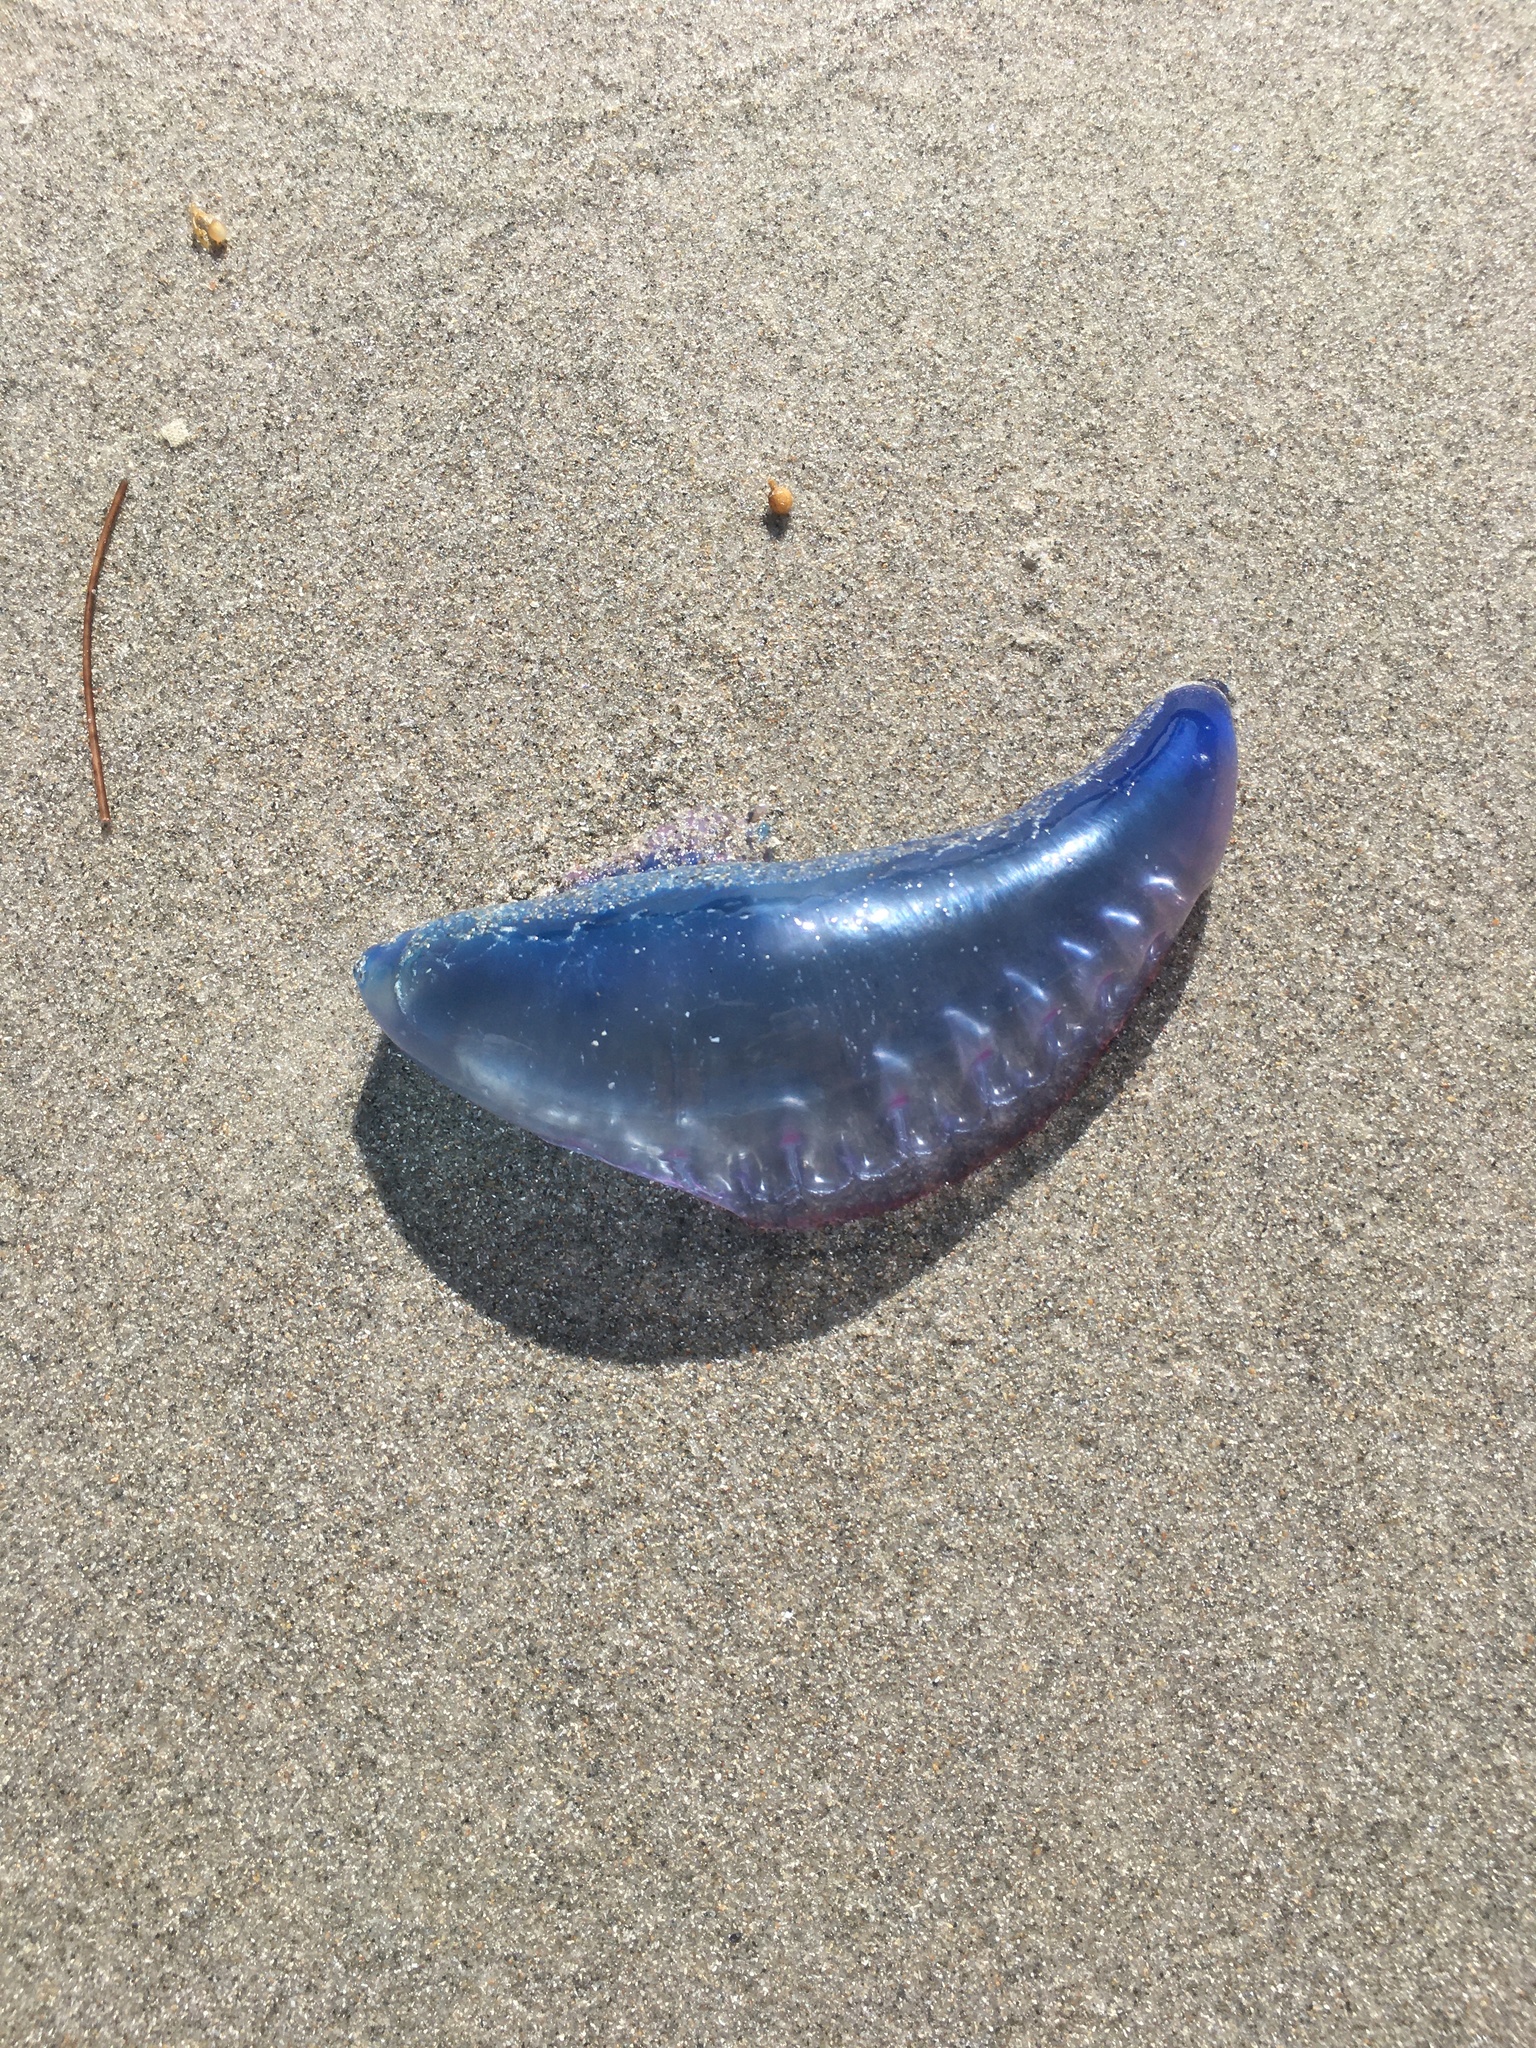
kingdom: Animalia
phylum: Cnidaria
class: Hydrozoa
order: Siphonophorae
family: Physaliidae
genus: Physalia
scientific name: Physalia physalis
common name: Portuguese man-of-war
